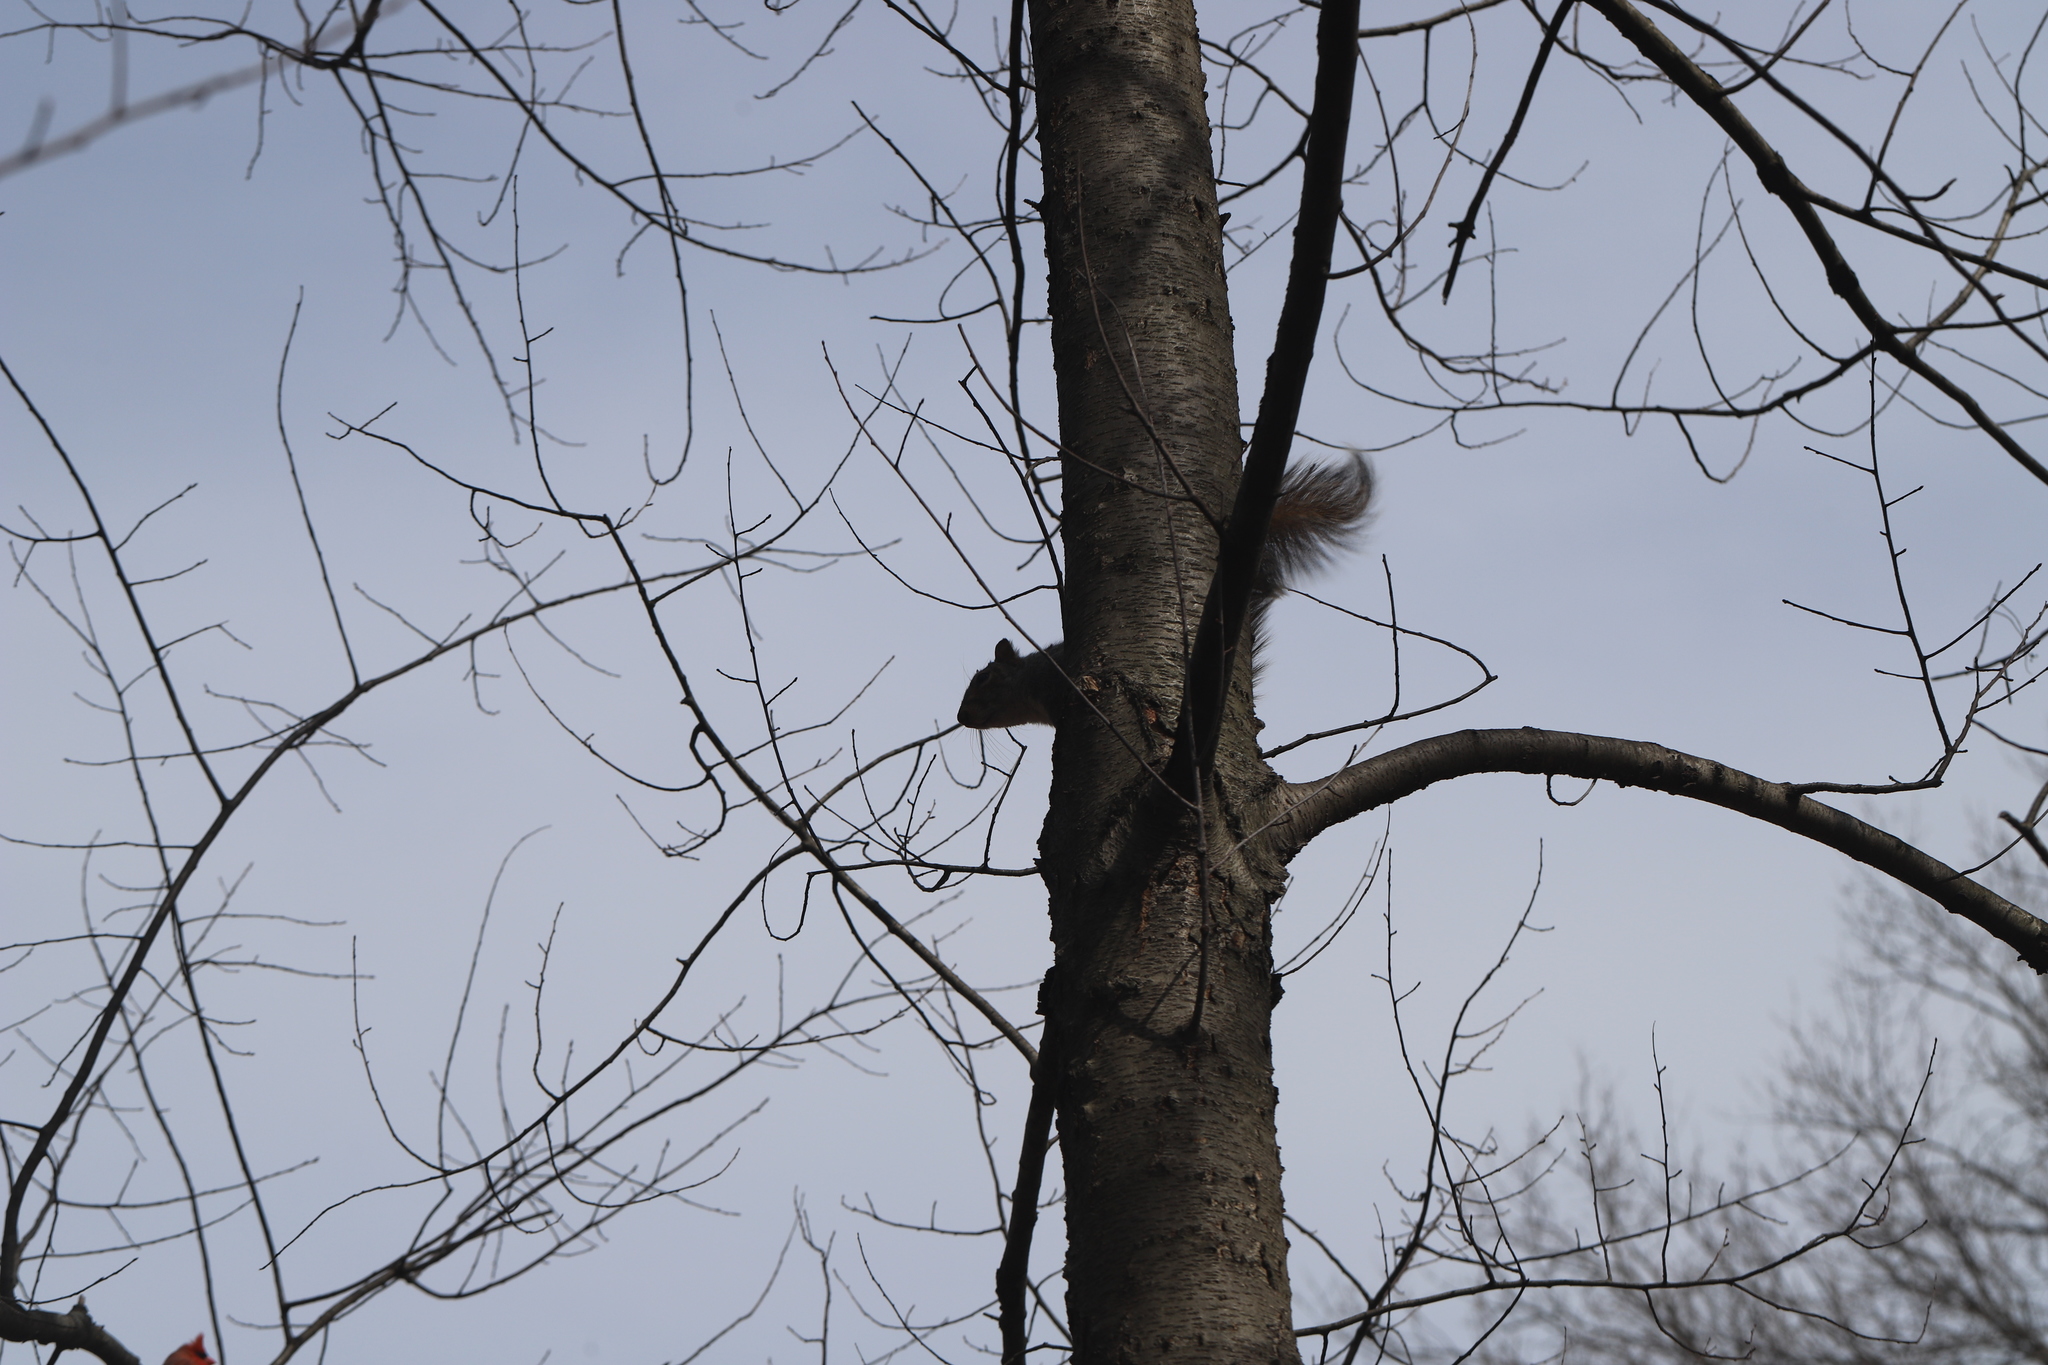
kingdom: Animalia
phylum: Chordata
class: Mammalia
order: Rodentia
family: Sciuridae
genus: Sciurus
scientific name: Sciurus carolinensis
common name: Eastern gray squirrel
